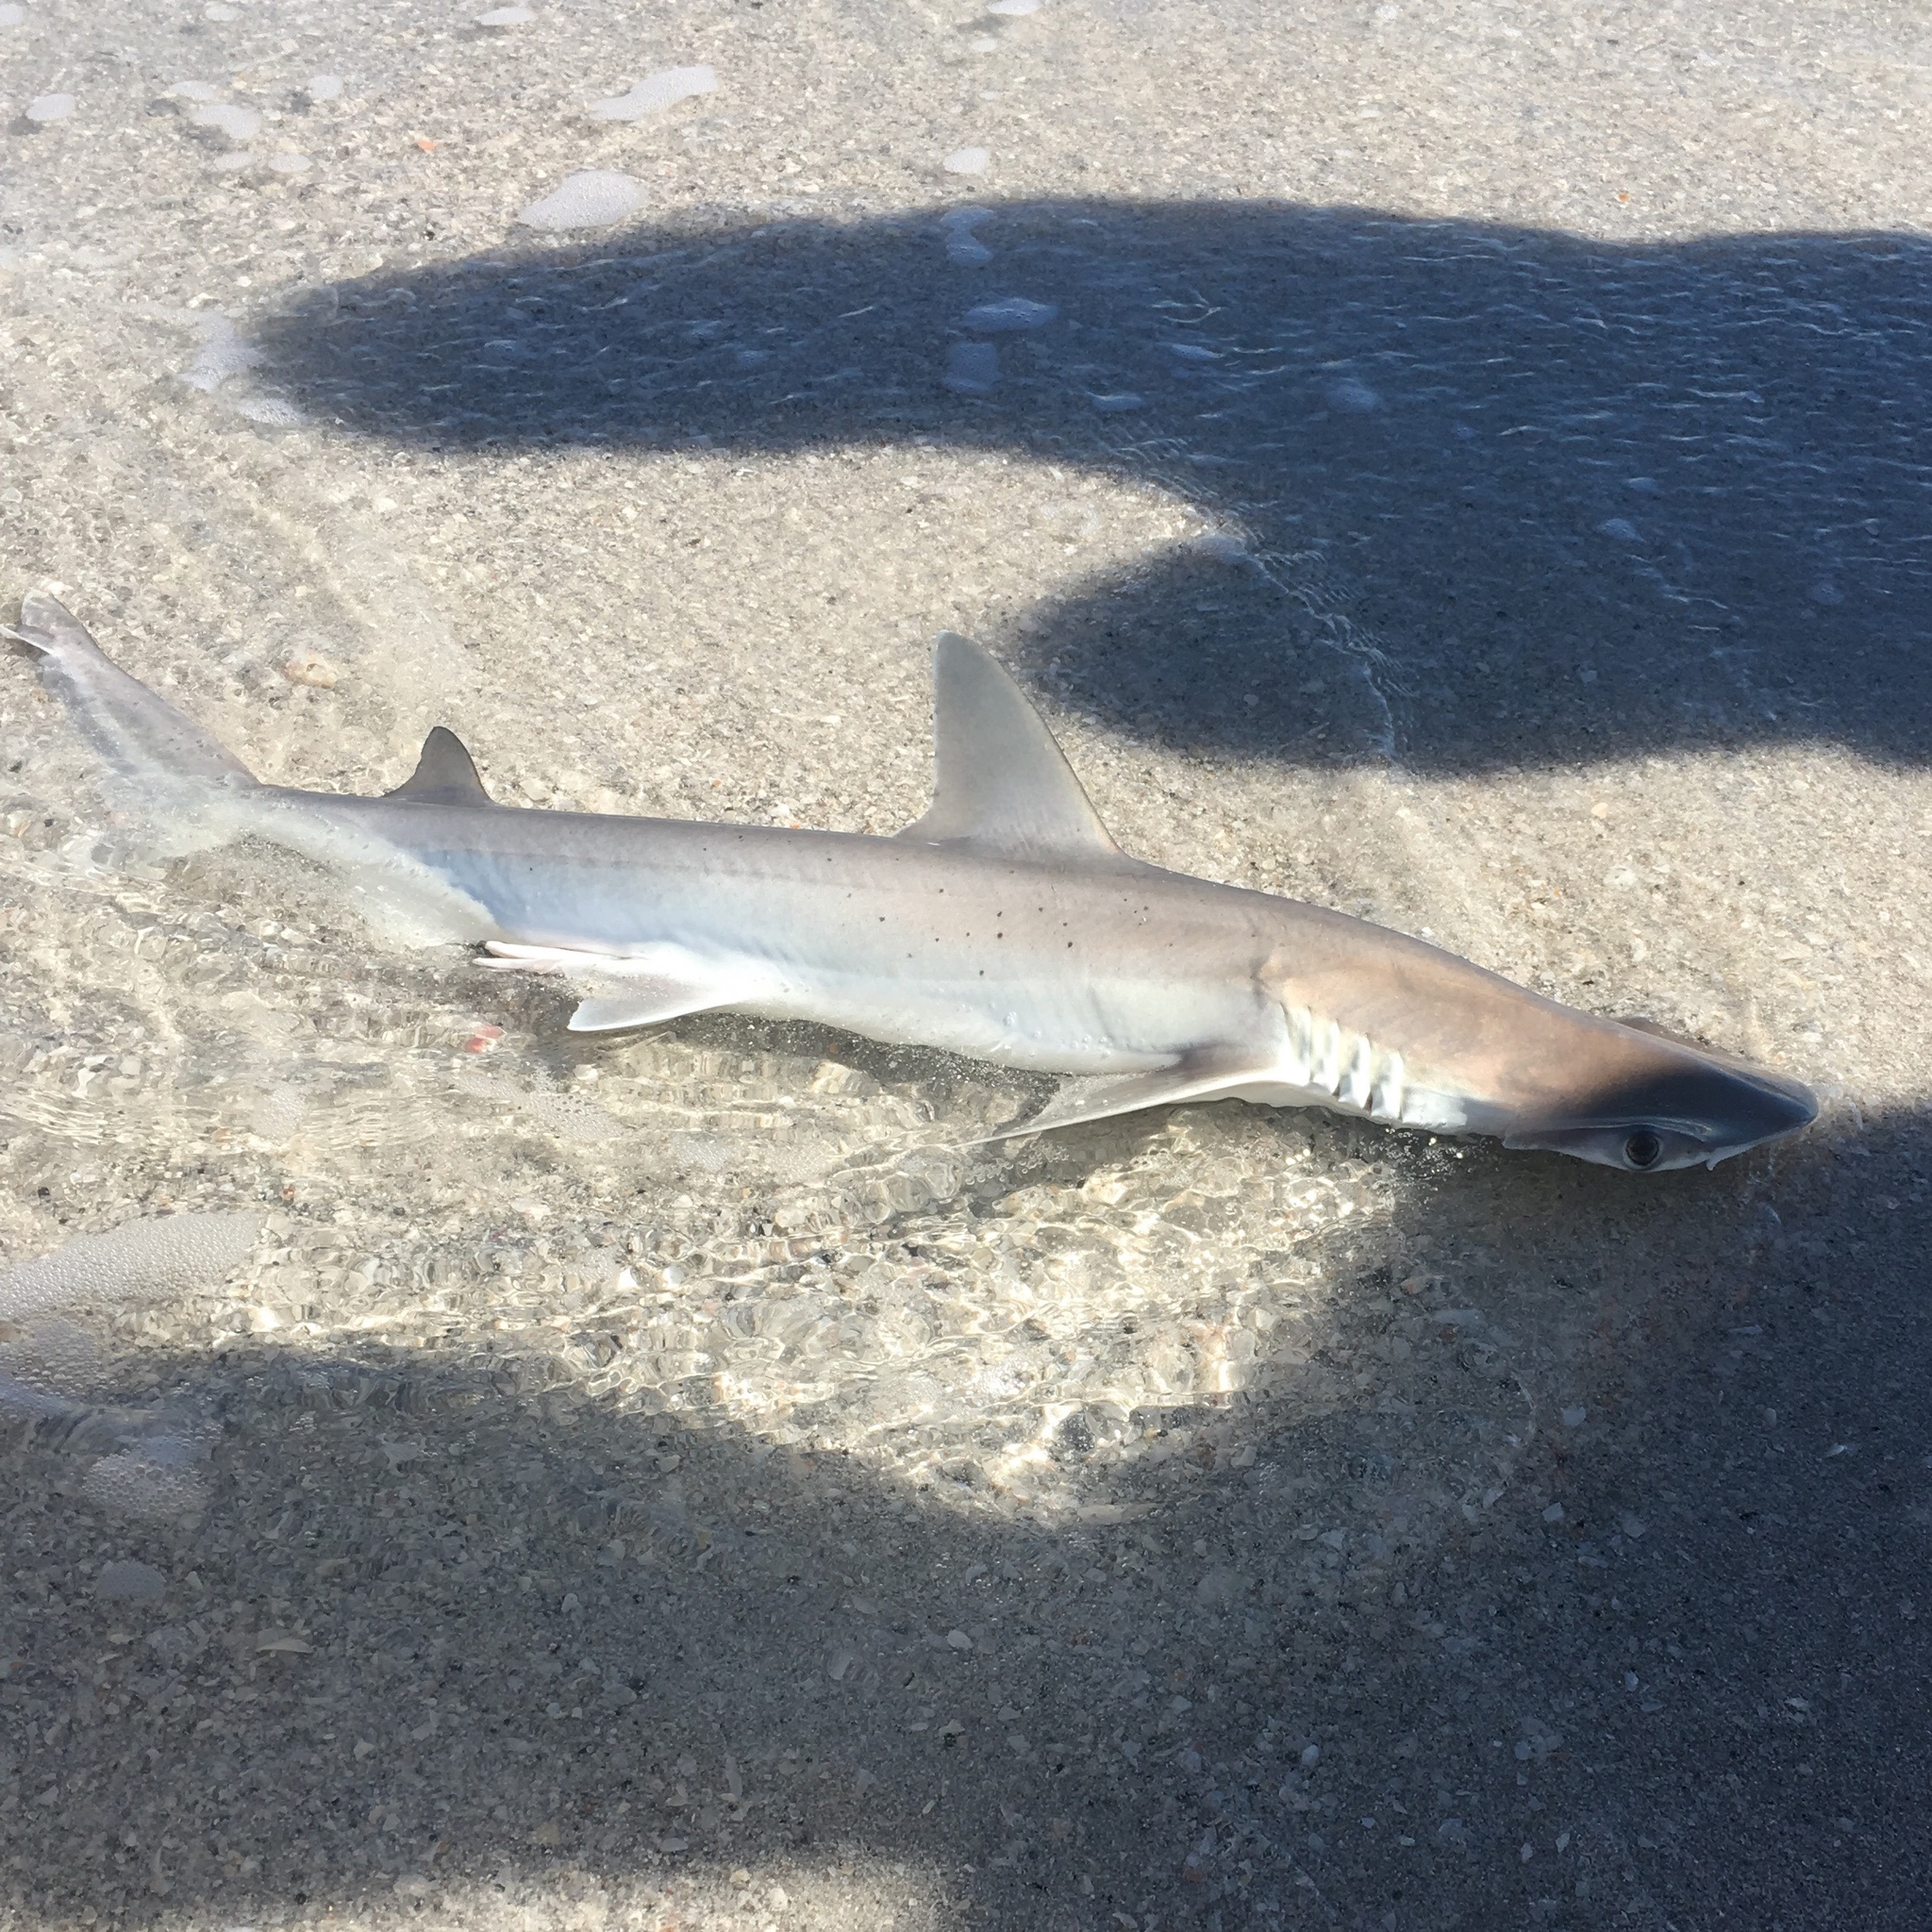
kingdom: Animalia
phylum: Chordata
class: Elasmobranchii
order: Carcharhiniformes
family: Sphyrnidae
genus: Sphyrna
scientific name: Sphyrna tiburo
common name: Bonnethead
